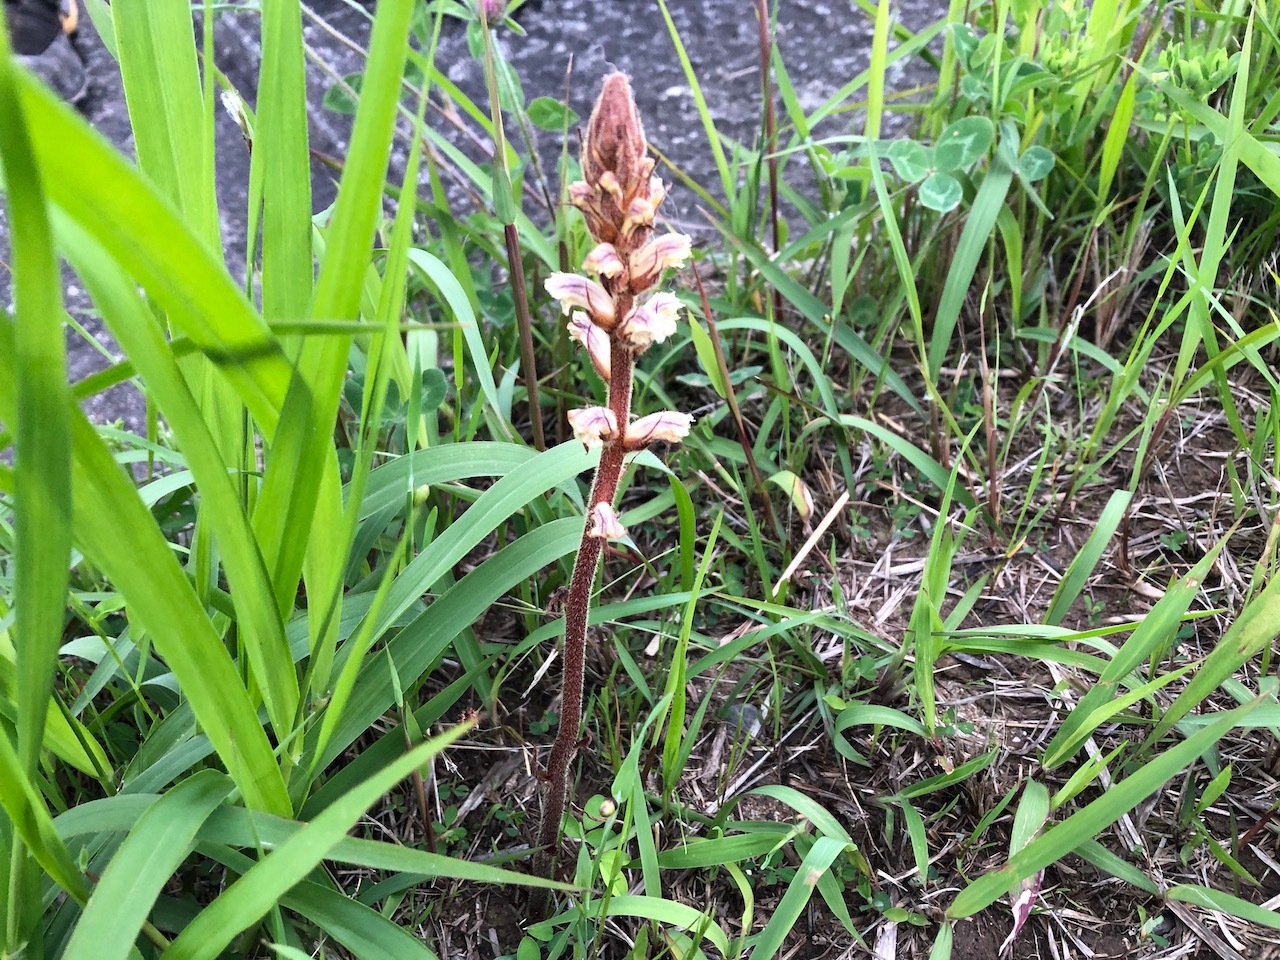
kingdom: Plantae
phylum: Tracheophyta
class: Magnoliopsida
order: Lamiales
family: Orobanchaceae
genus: Orobanche
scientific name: Orobanche minor
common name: Common broomrape
